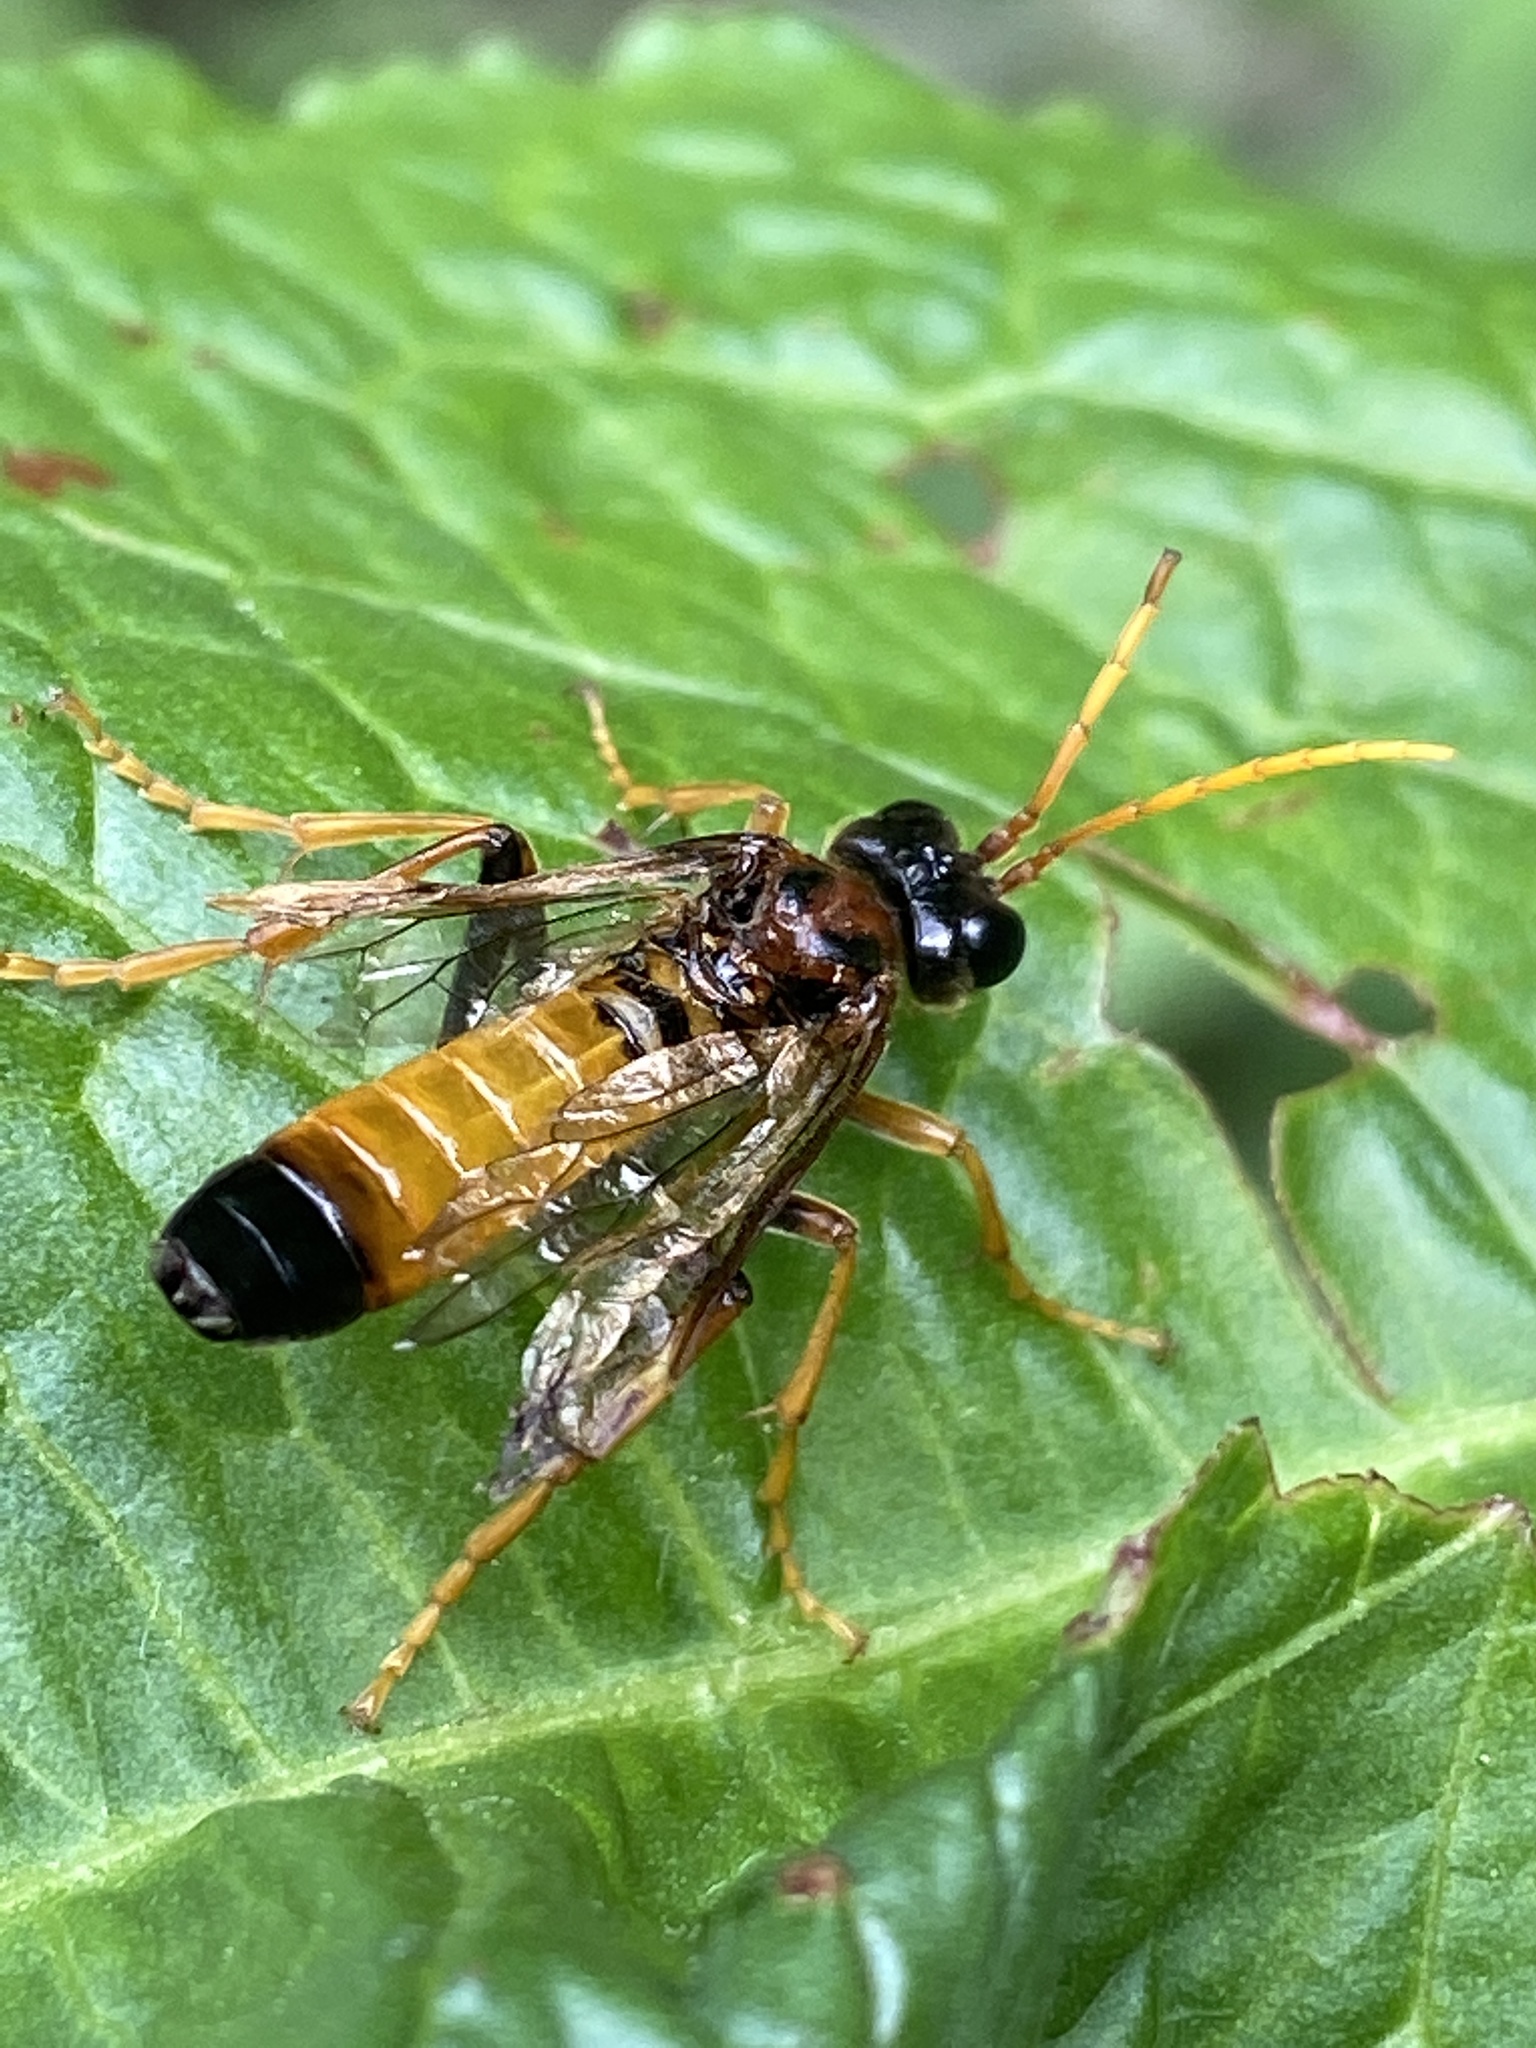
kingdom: Animalia
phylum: Arthropoda
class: Insecta
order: Hymenoptera
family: Tenthredinidae
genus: Tenthredo
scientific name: Tenthredo campestris
